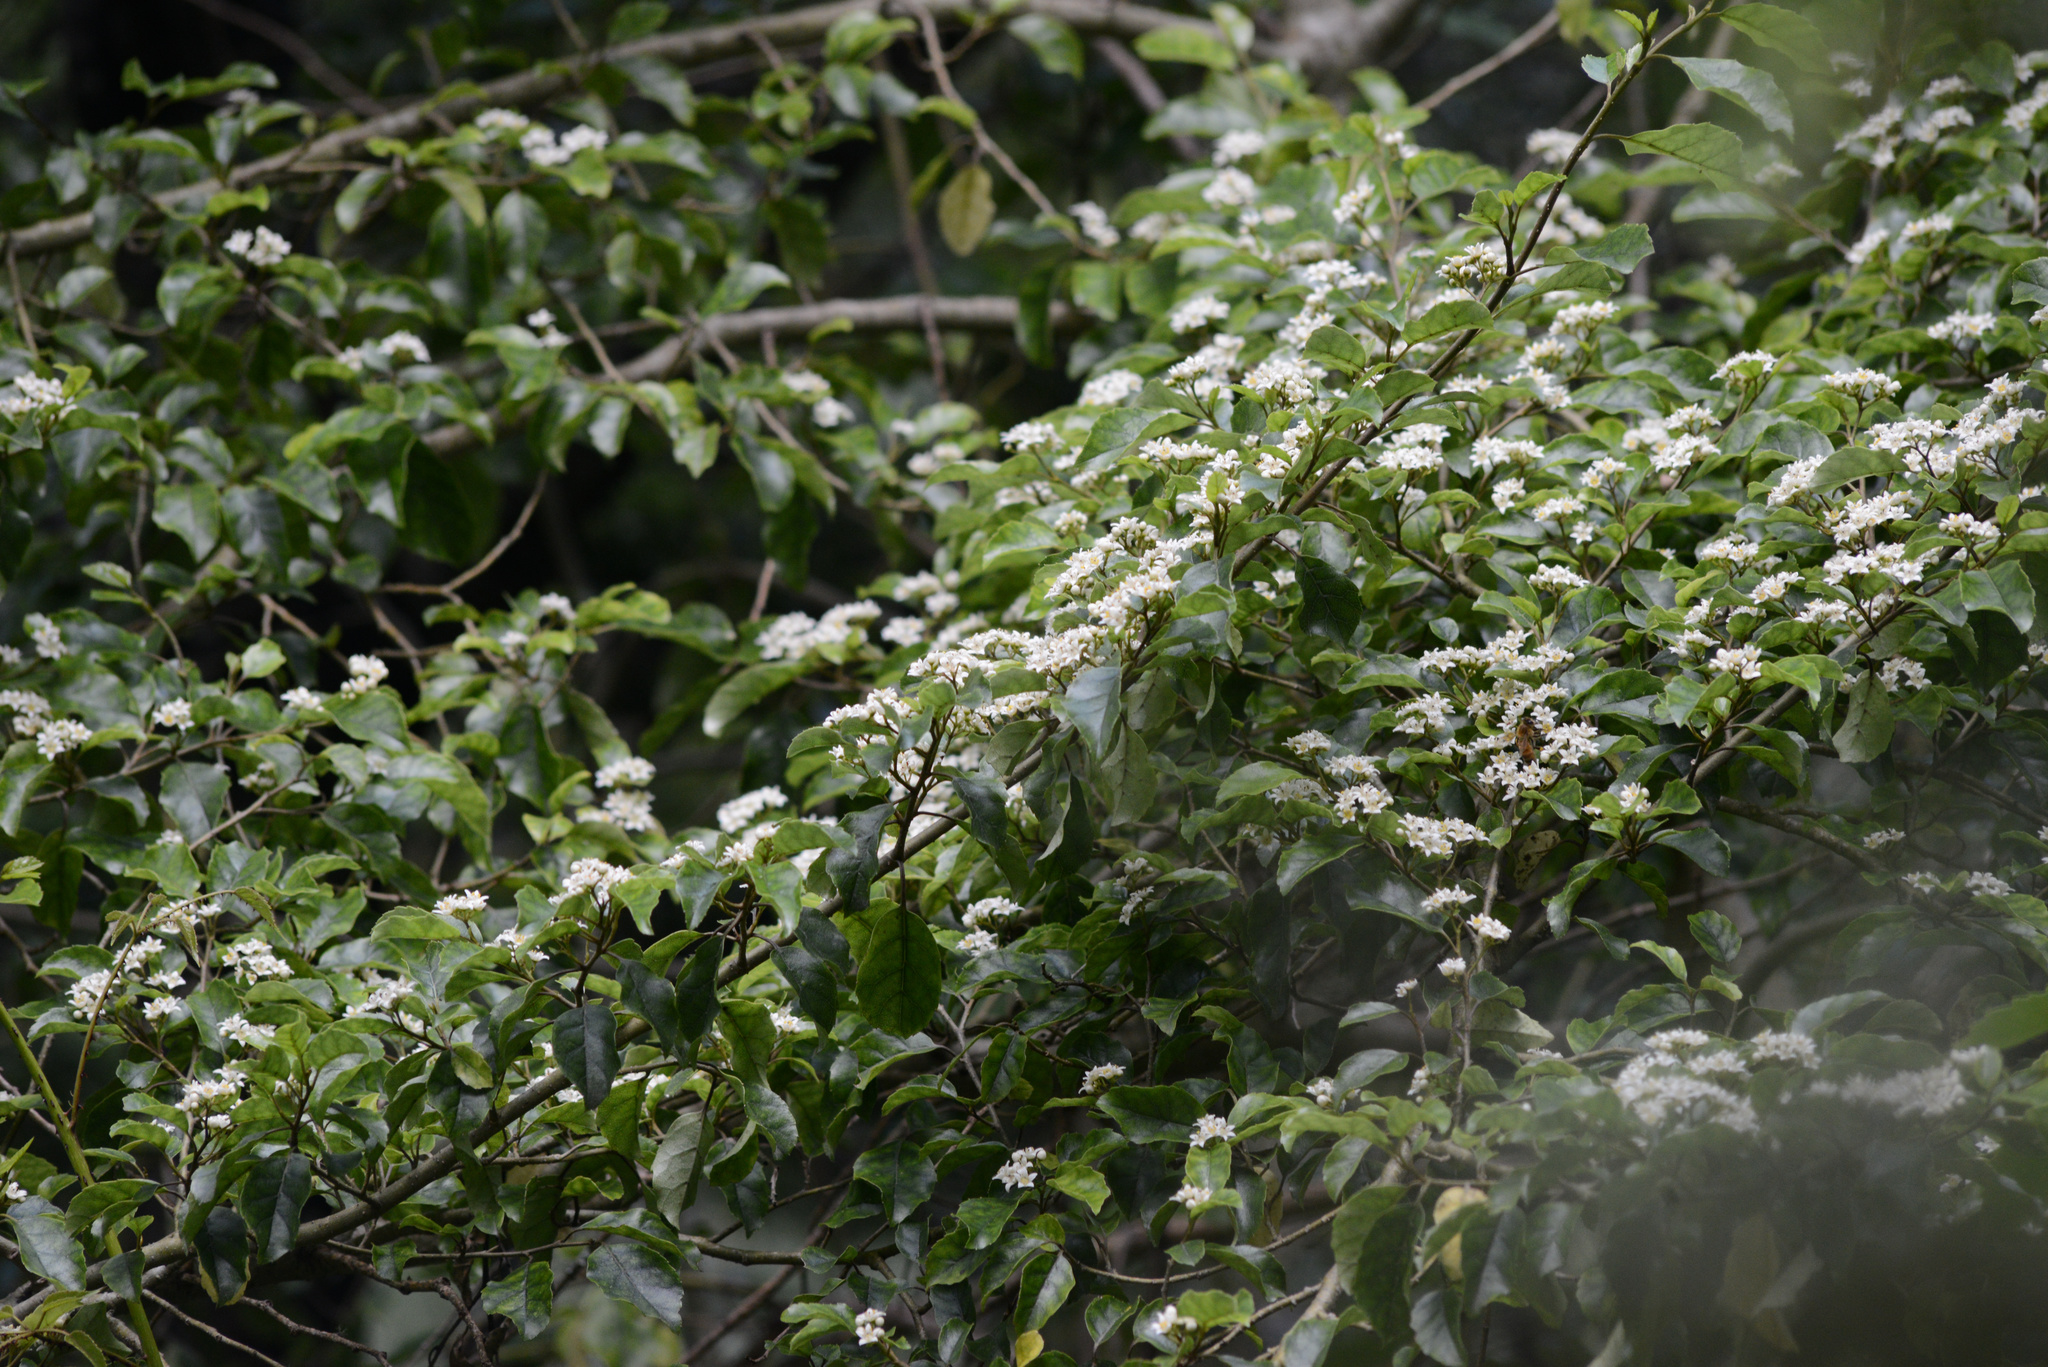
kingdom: Plantae
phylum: Tracheophyta
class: Magnoliopsida
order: Asterales
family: Rousseaceae
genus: Carpodetus
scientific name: Carpodetus serratus
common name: White mapau
